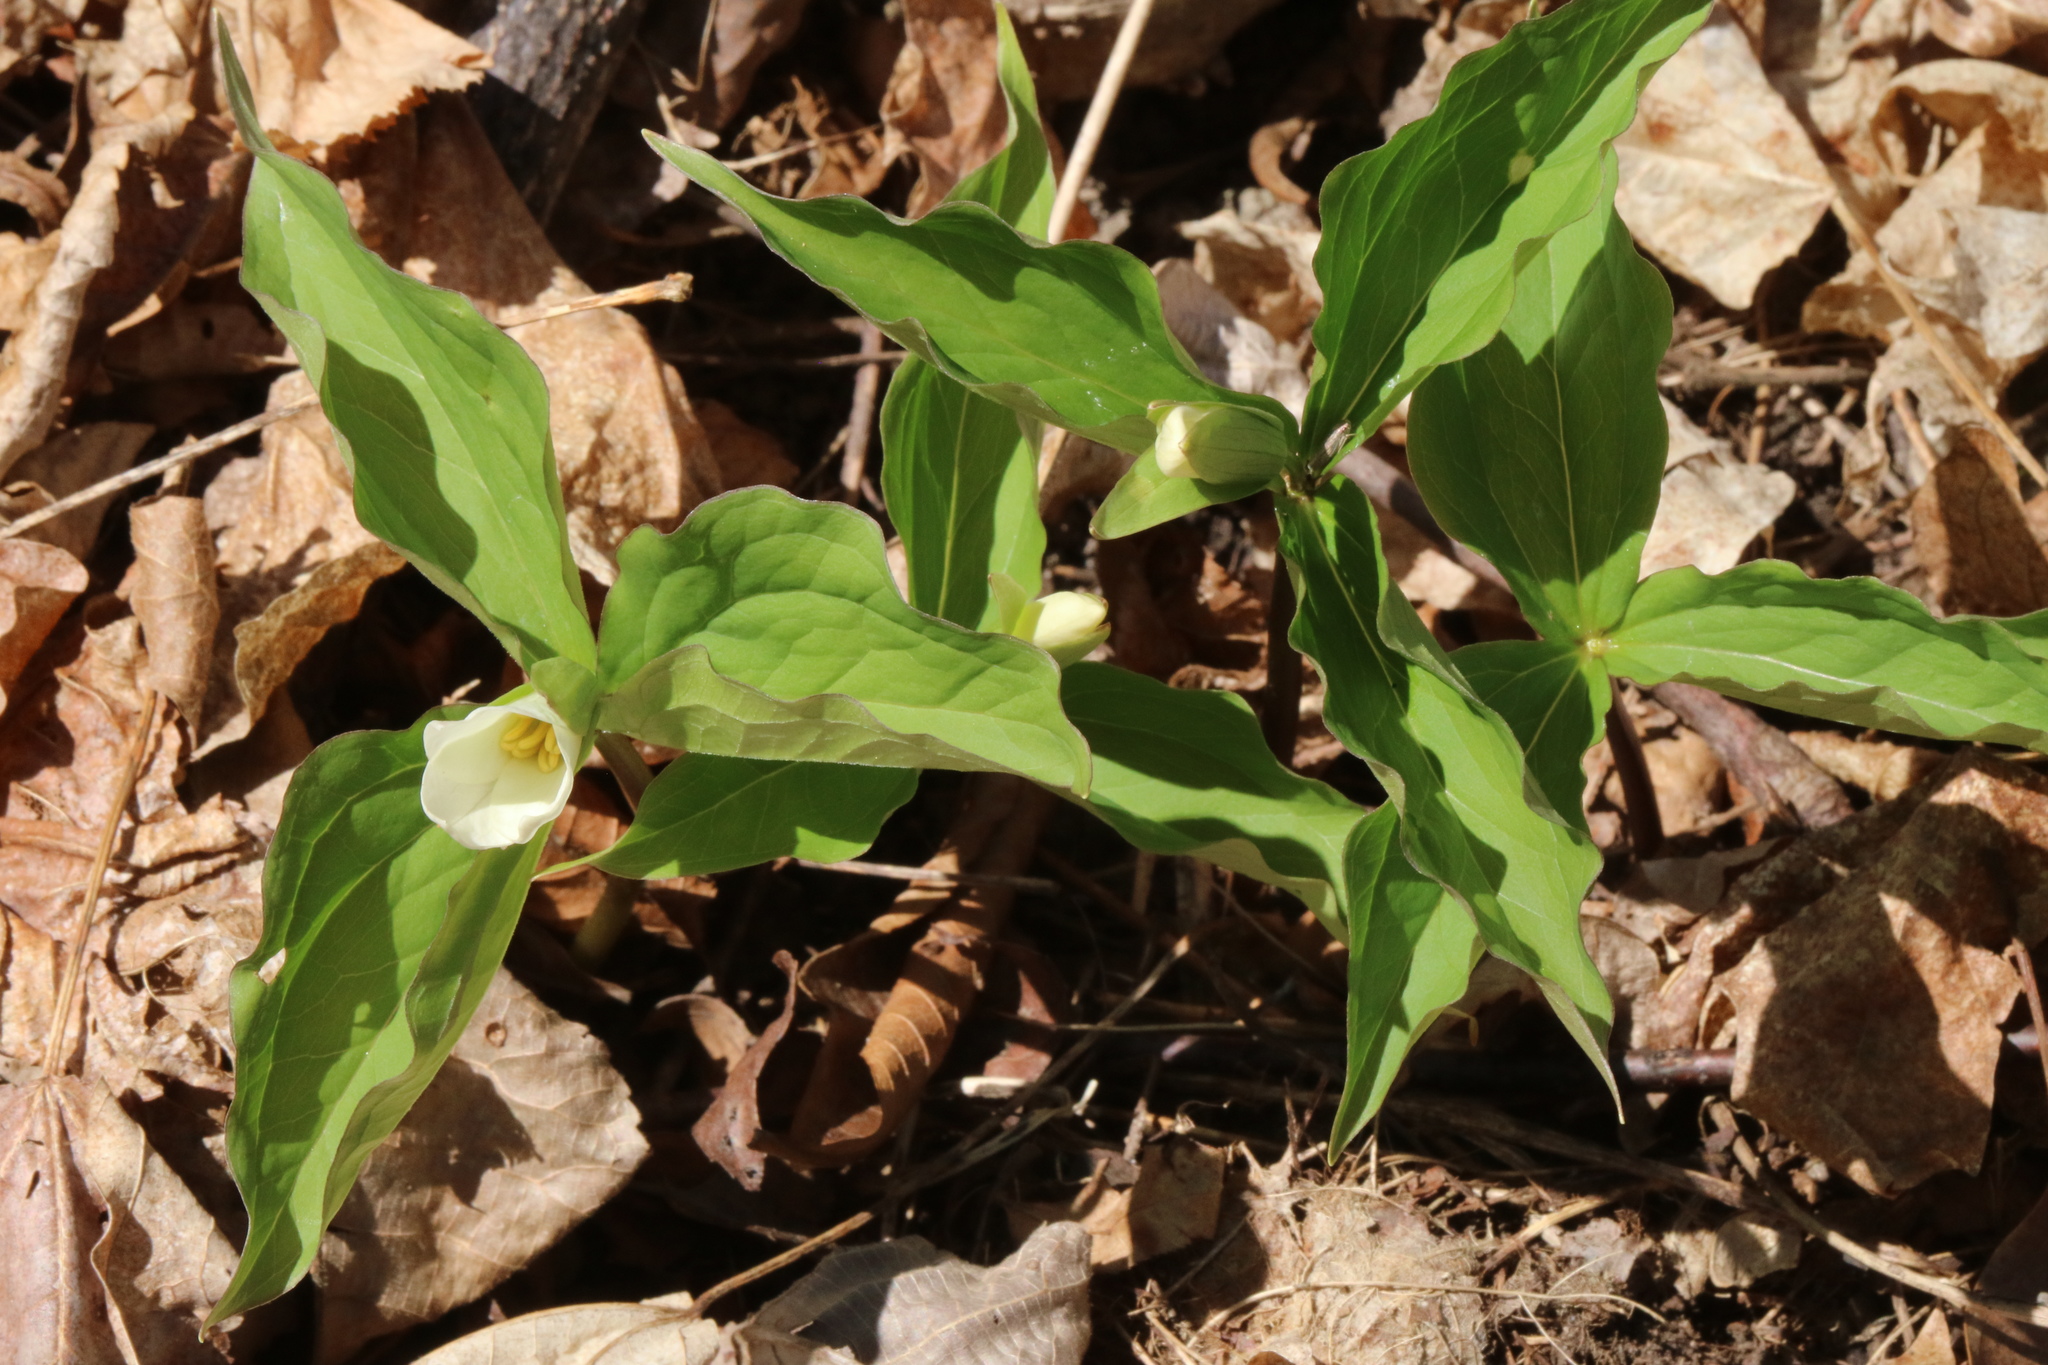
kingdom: Plantae
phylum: Tracheophyta
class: Liliopsida
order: Liliales
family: Melanthiaceae
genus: Trillium
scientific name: Trillium grandiflorum
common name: Great white trillium
